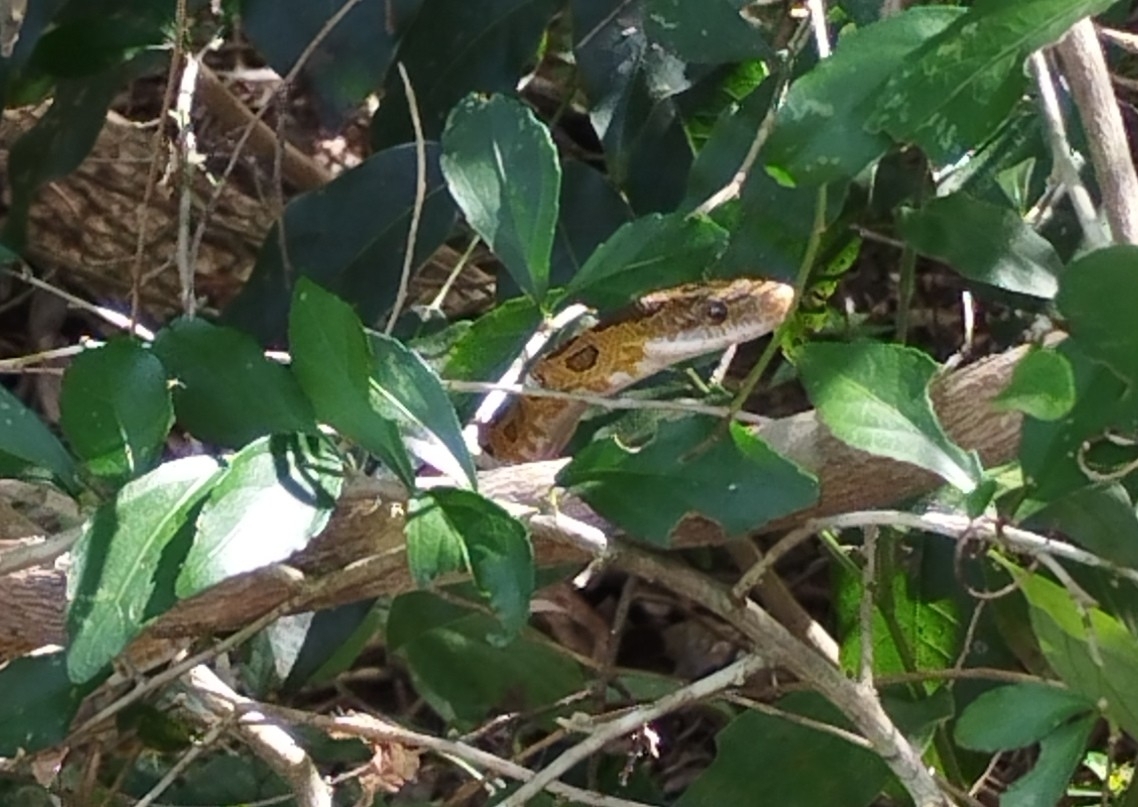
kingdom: Animalia
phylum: Chordata
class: Squamata
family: Colubridae
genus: Senticolis
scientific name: Senticolis triaspis
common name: Green rat snake
